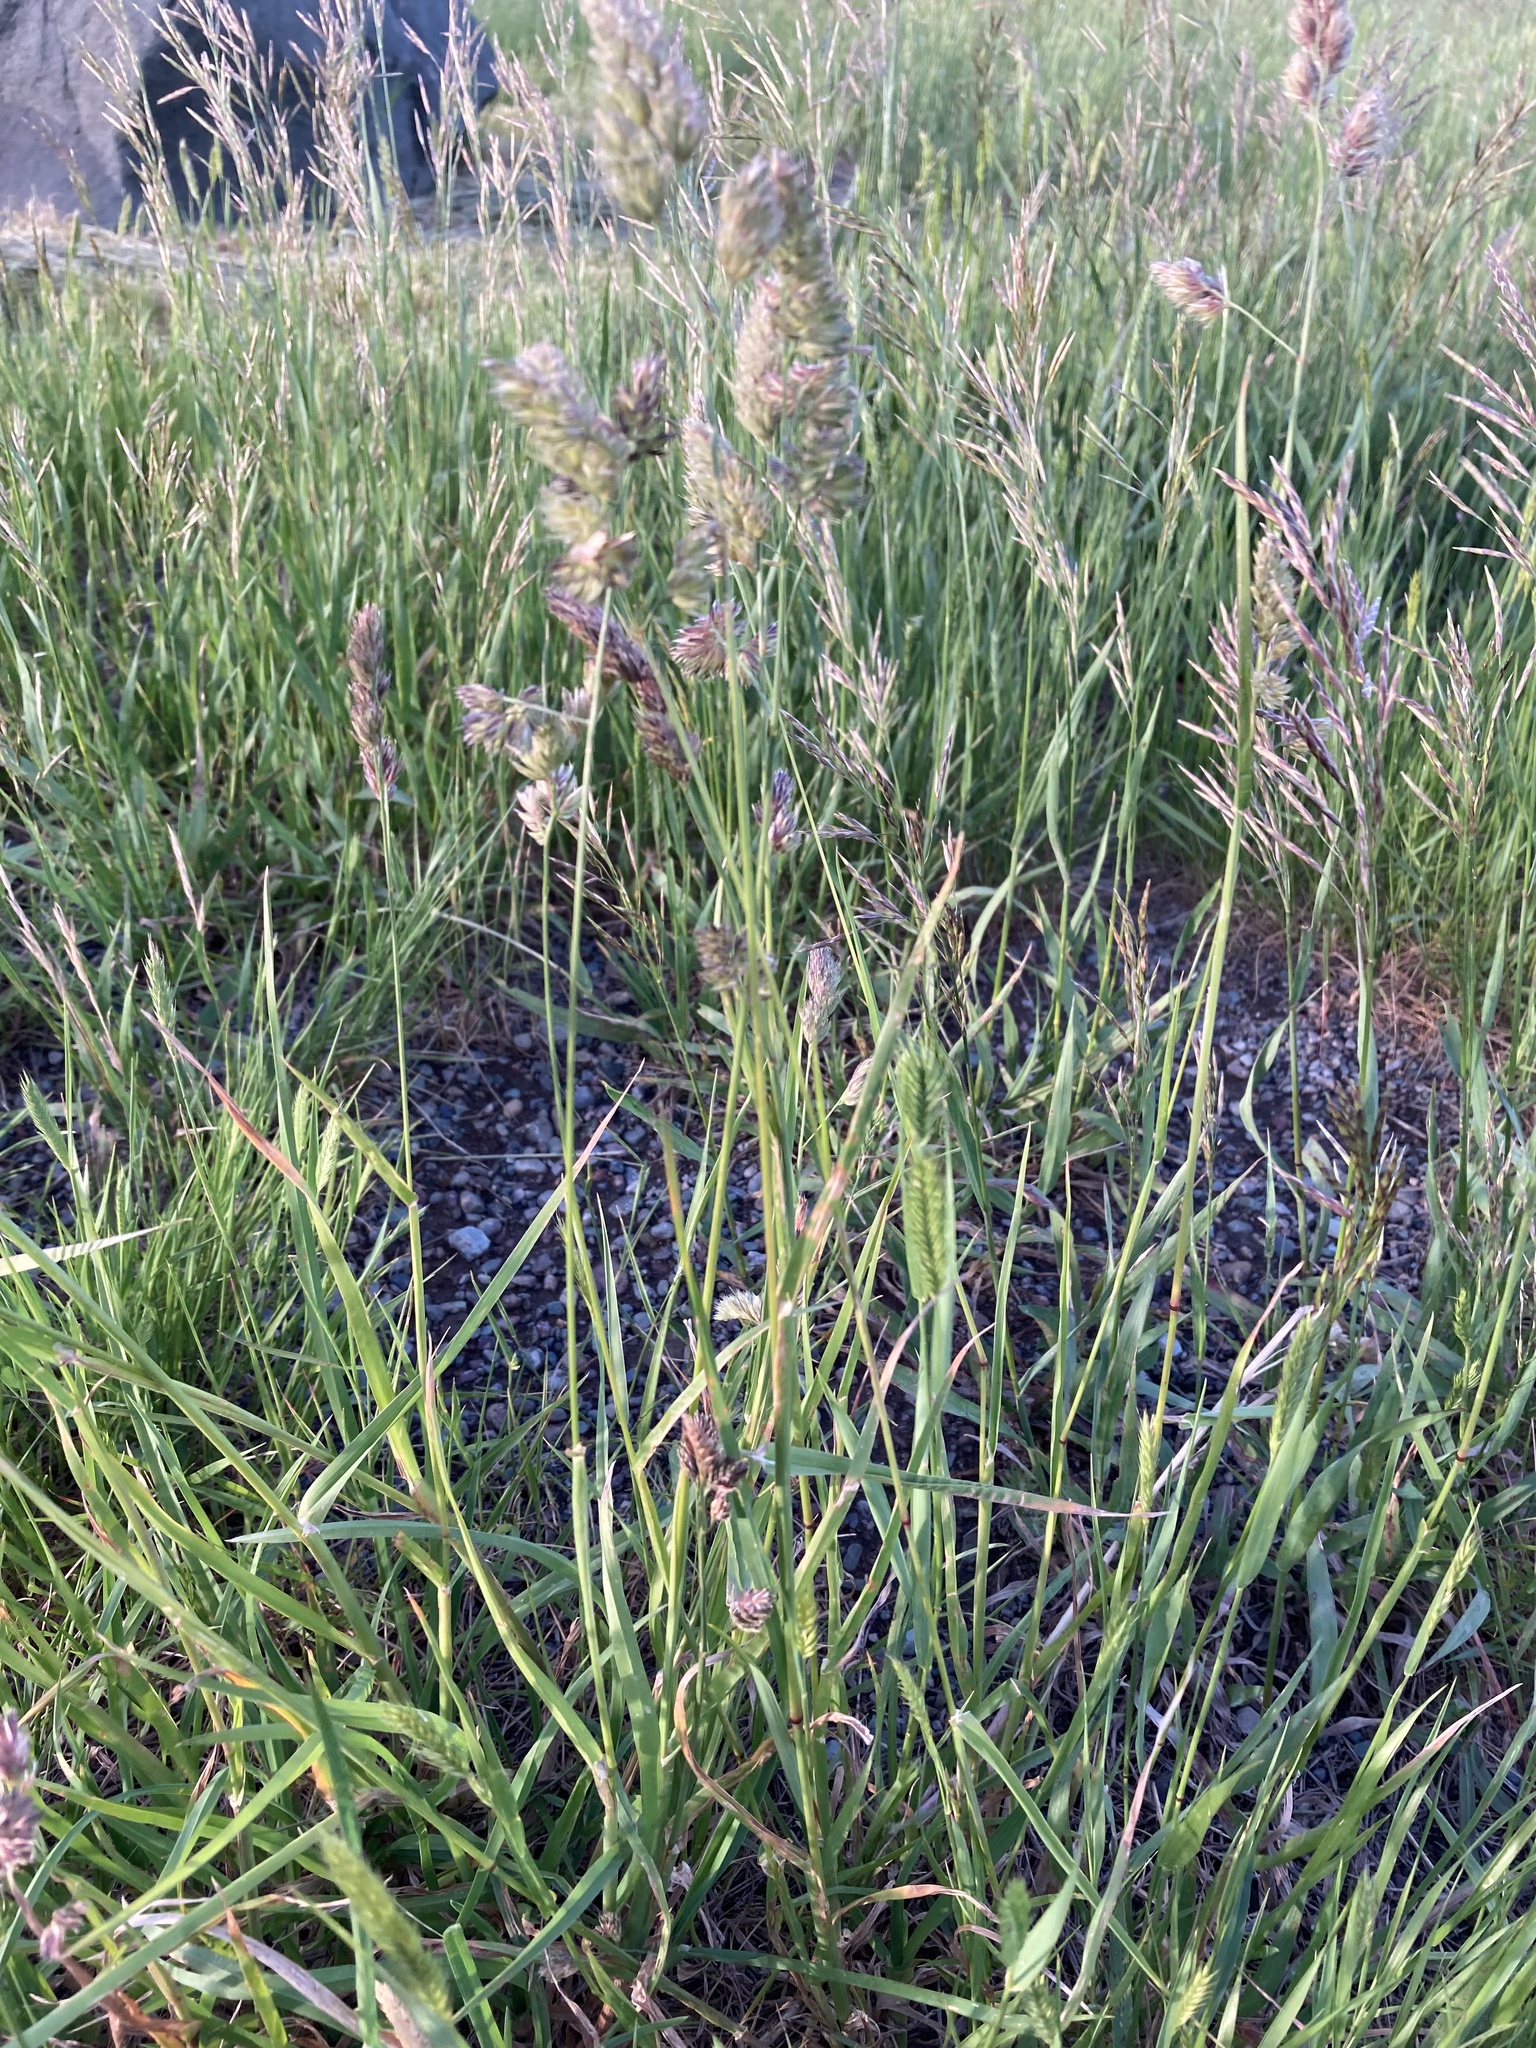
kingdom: Plantae
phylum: Tracheophyta
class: Liliopsida
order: Poales
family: Poaceae
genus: Dactylis
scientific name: Dactylis glomerata
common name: Orchardgrass
